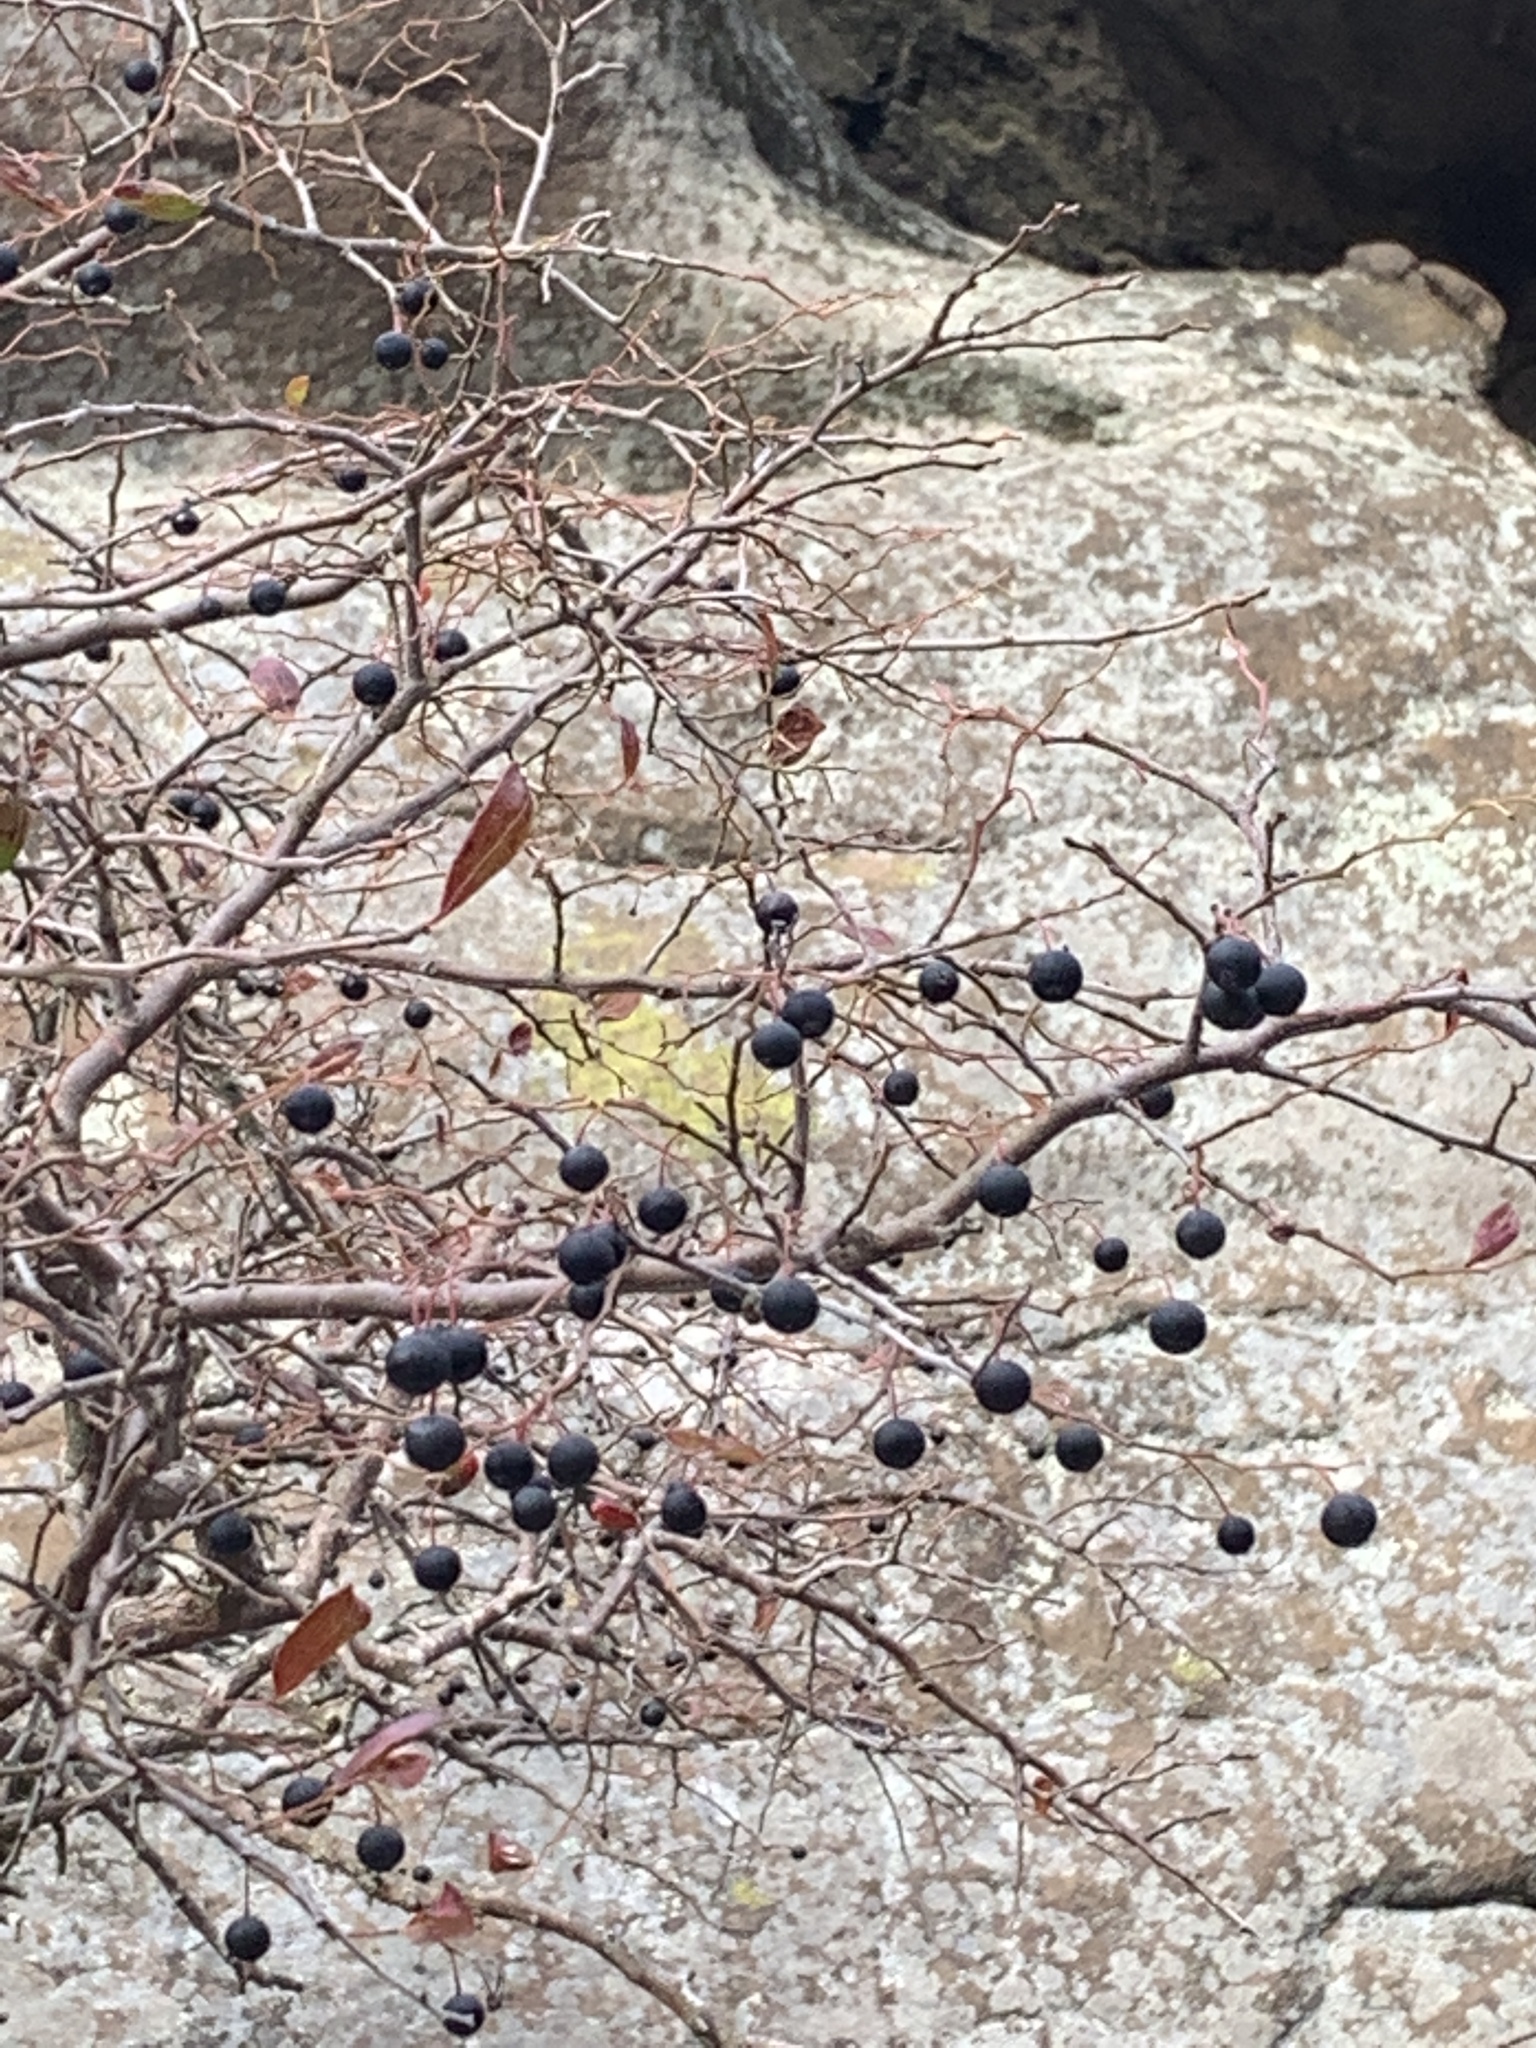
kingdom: Plantae
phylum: Tracheophyta
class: Magnoliopsida
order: Ericales
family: Ericaceae
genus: Vaccinium
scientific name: Vaccinium arboreum
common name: Farkleberry
